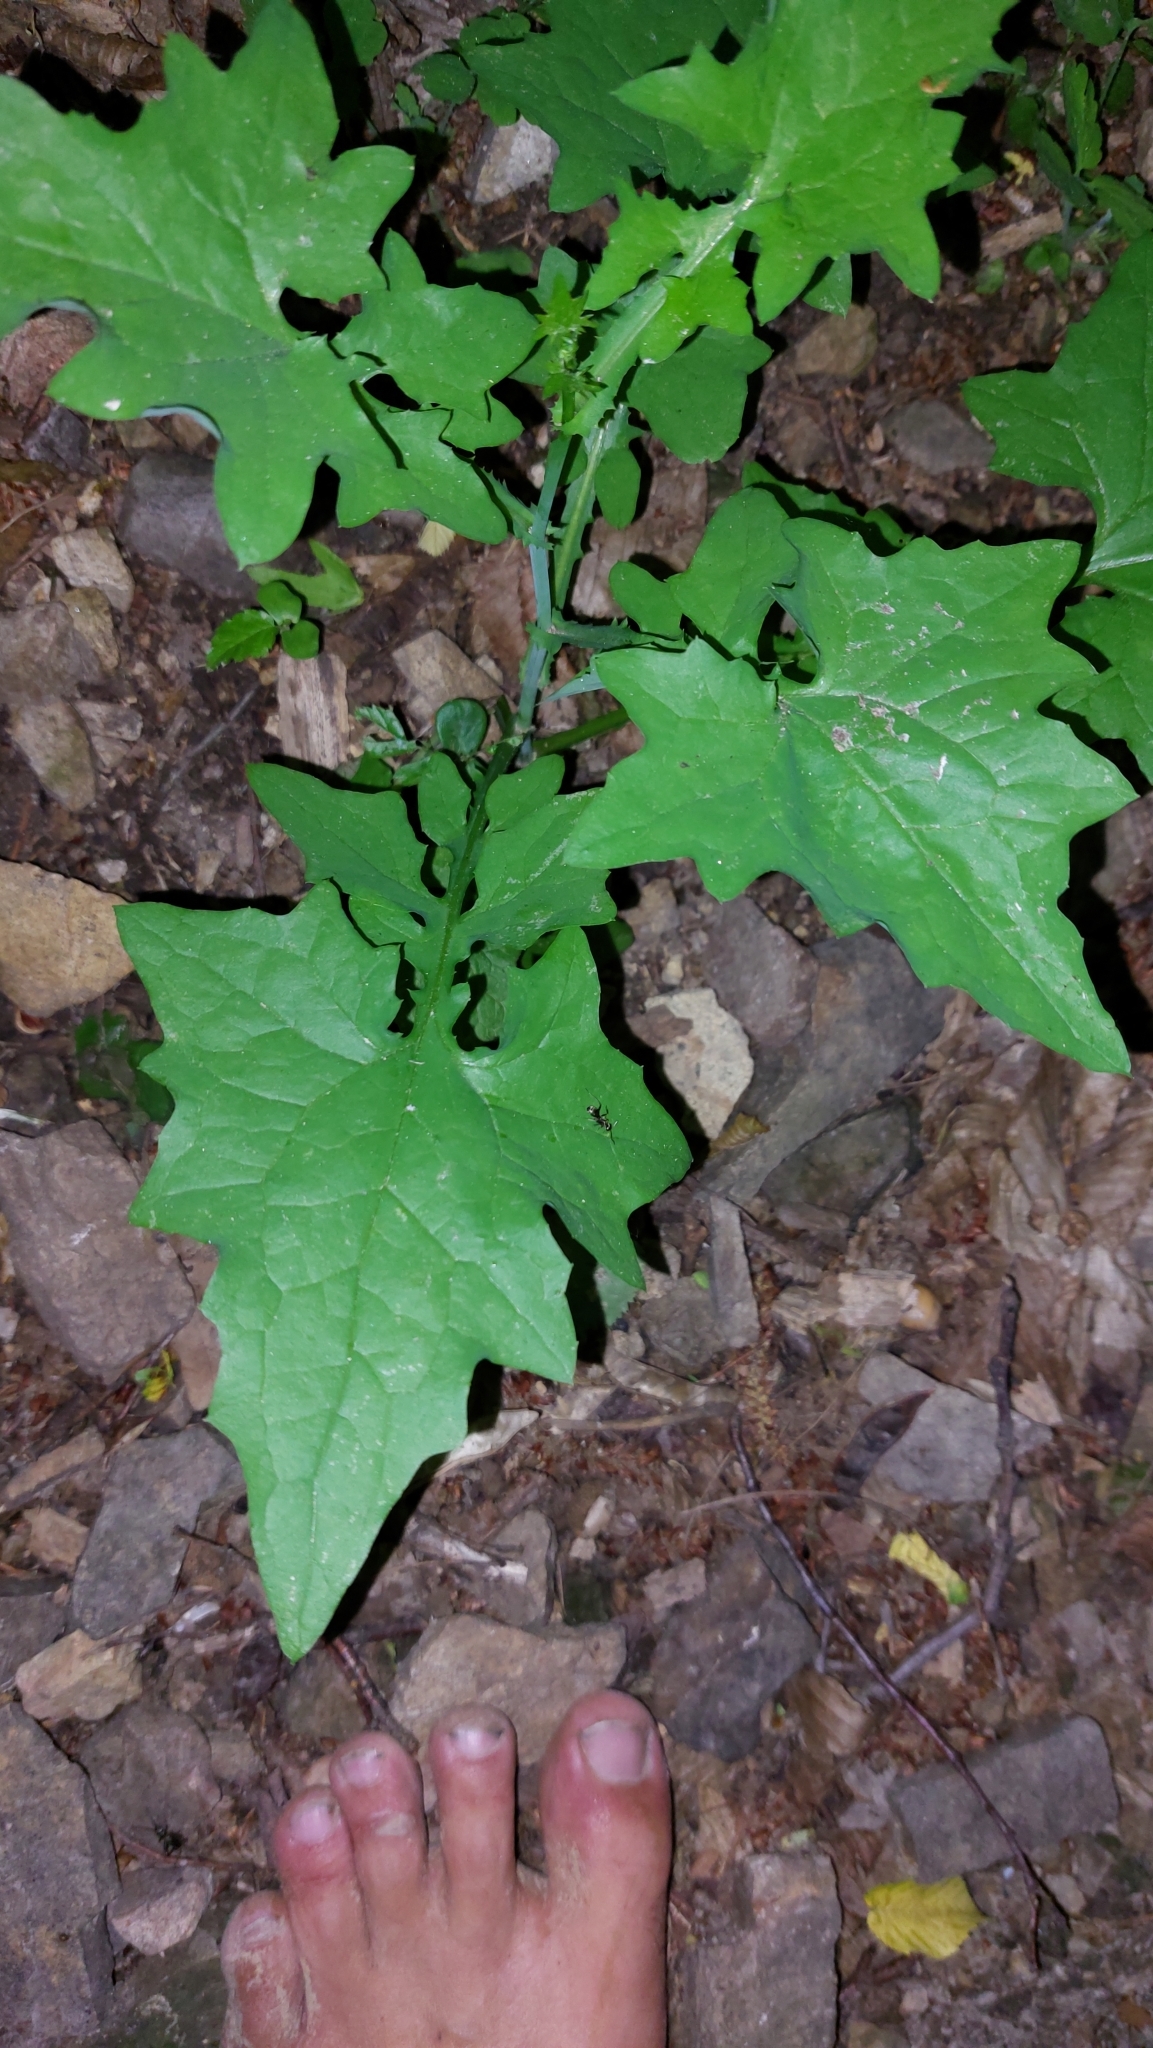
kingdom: Plantae
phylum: Tracheophyta
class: Magnoliopsida
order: Asterales
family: Asteraceae
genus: Mycelis
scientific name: Mycelis muralis
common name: Wall lettuce
